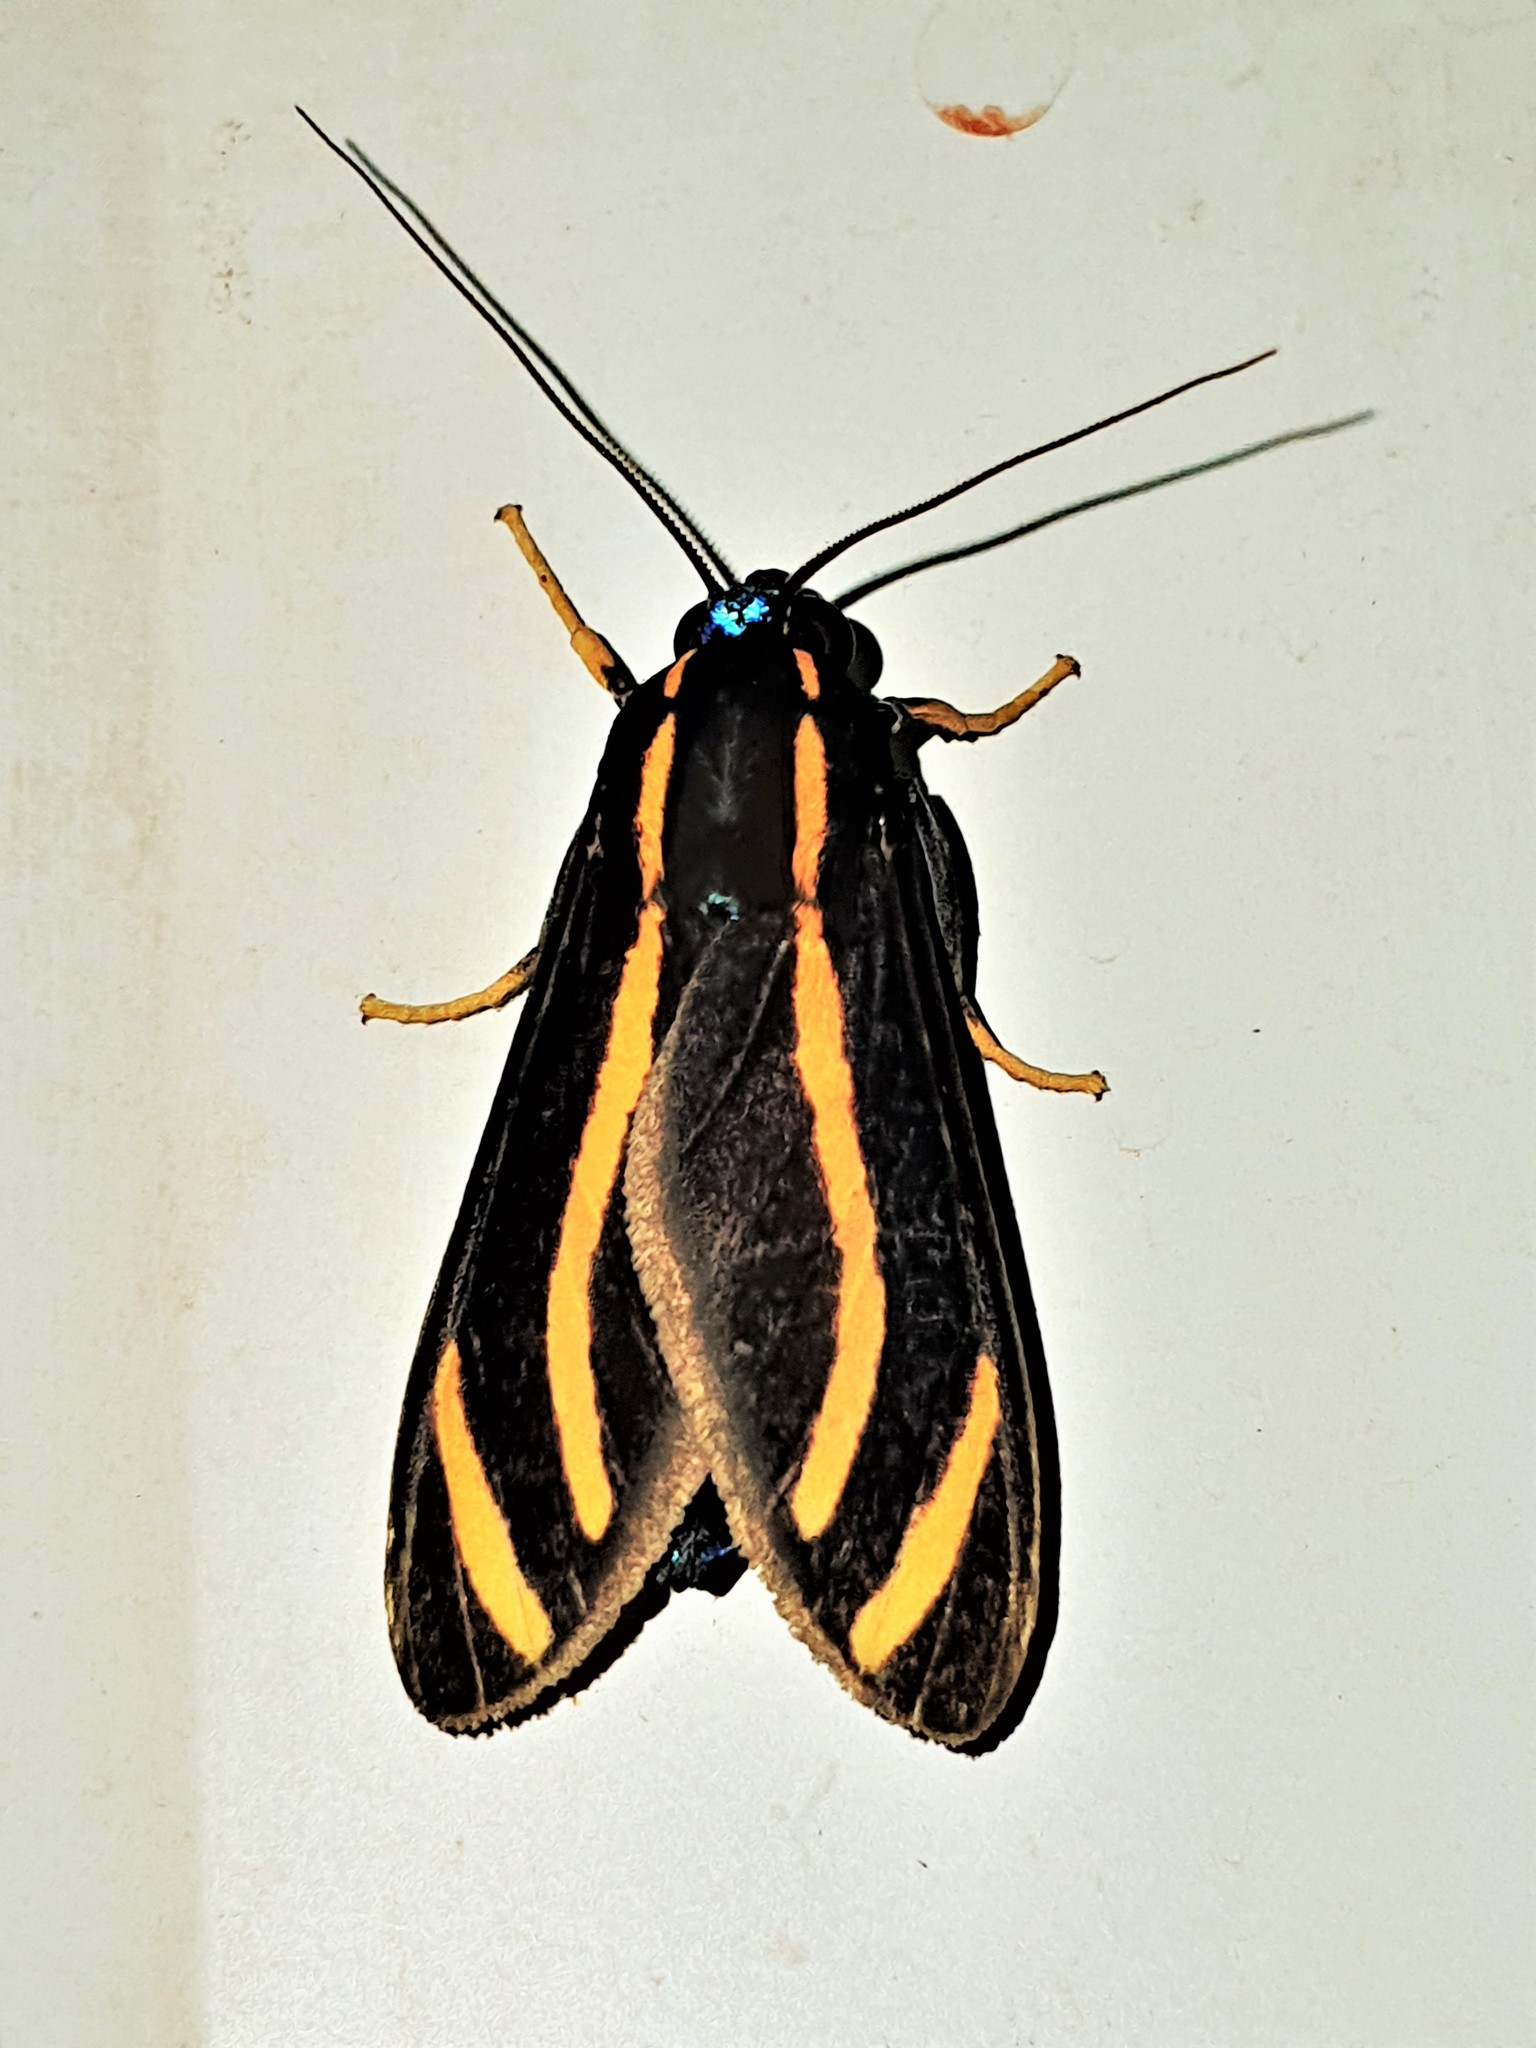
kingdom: Animalia
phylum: Arthropoda
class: Insecta
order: Lepidoptera
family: Erebidae
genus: Ormetica
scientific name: Ormetica packardi
